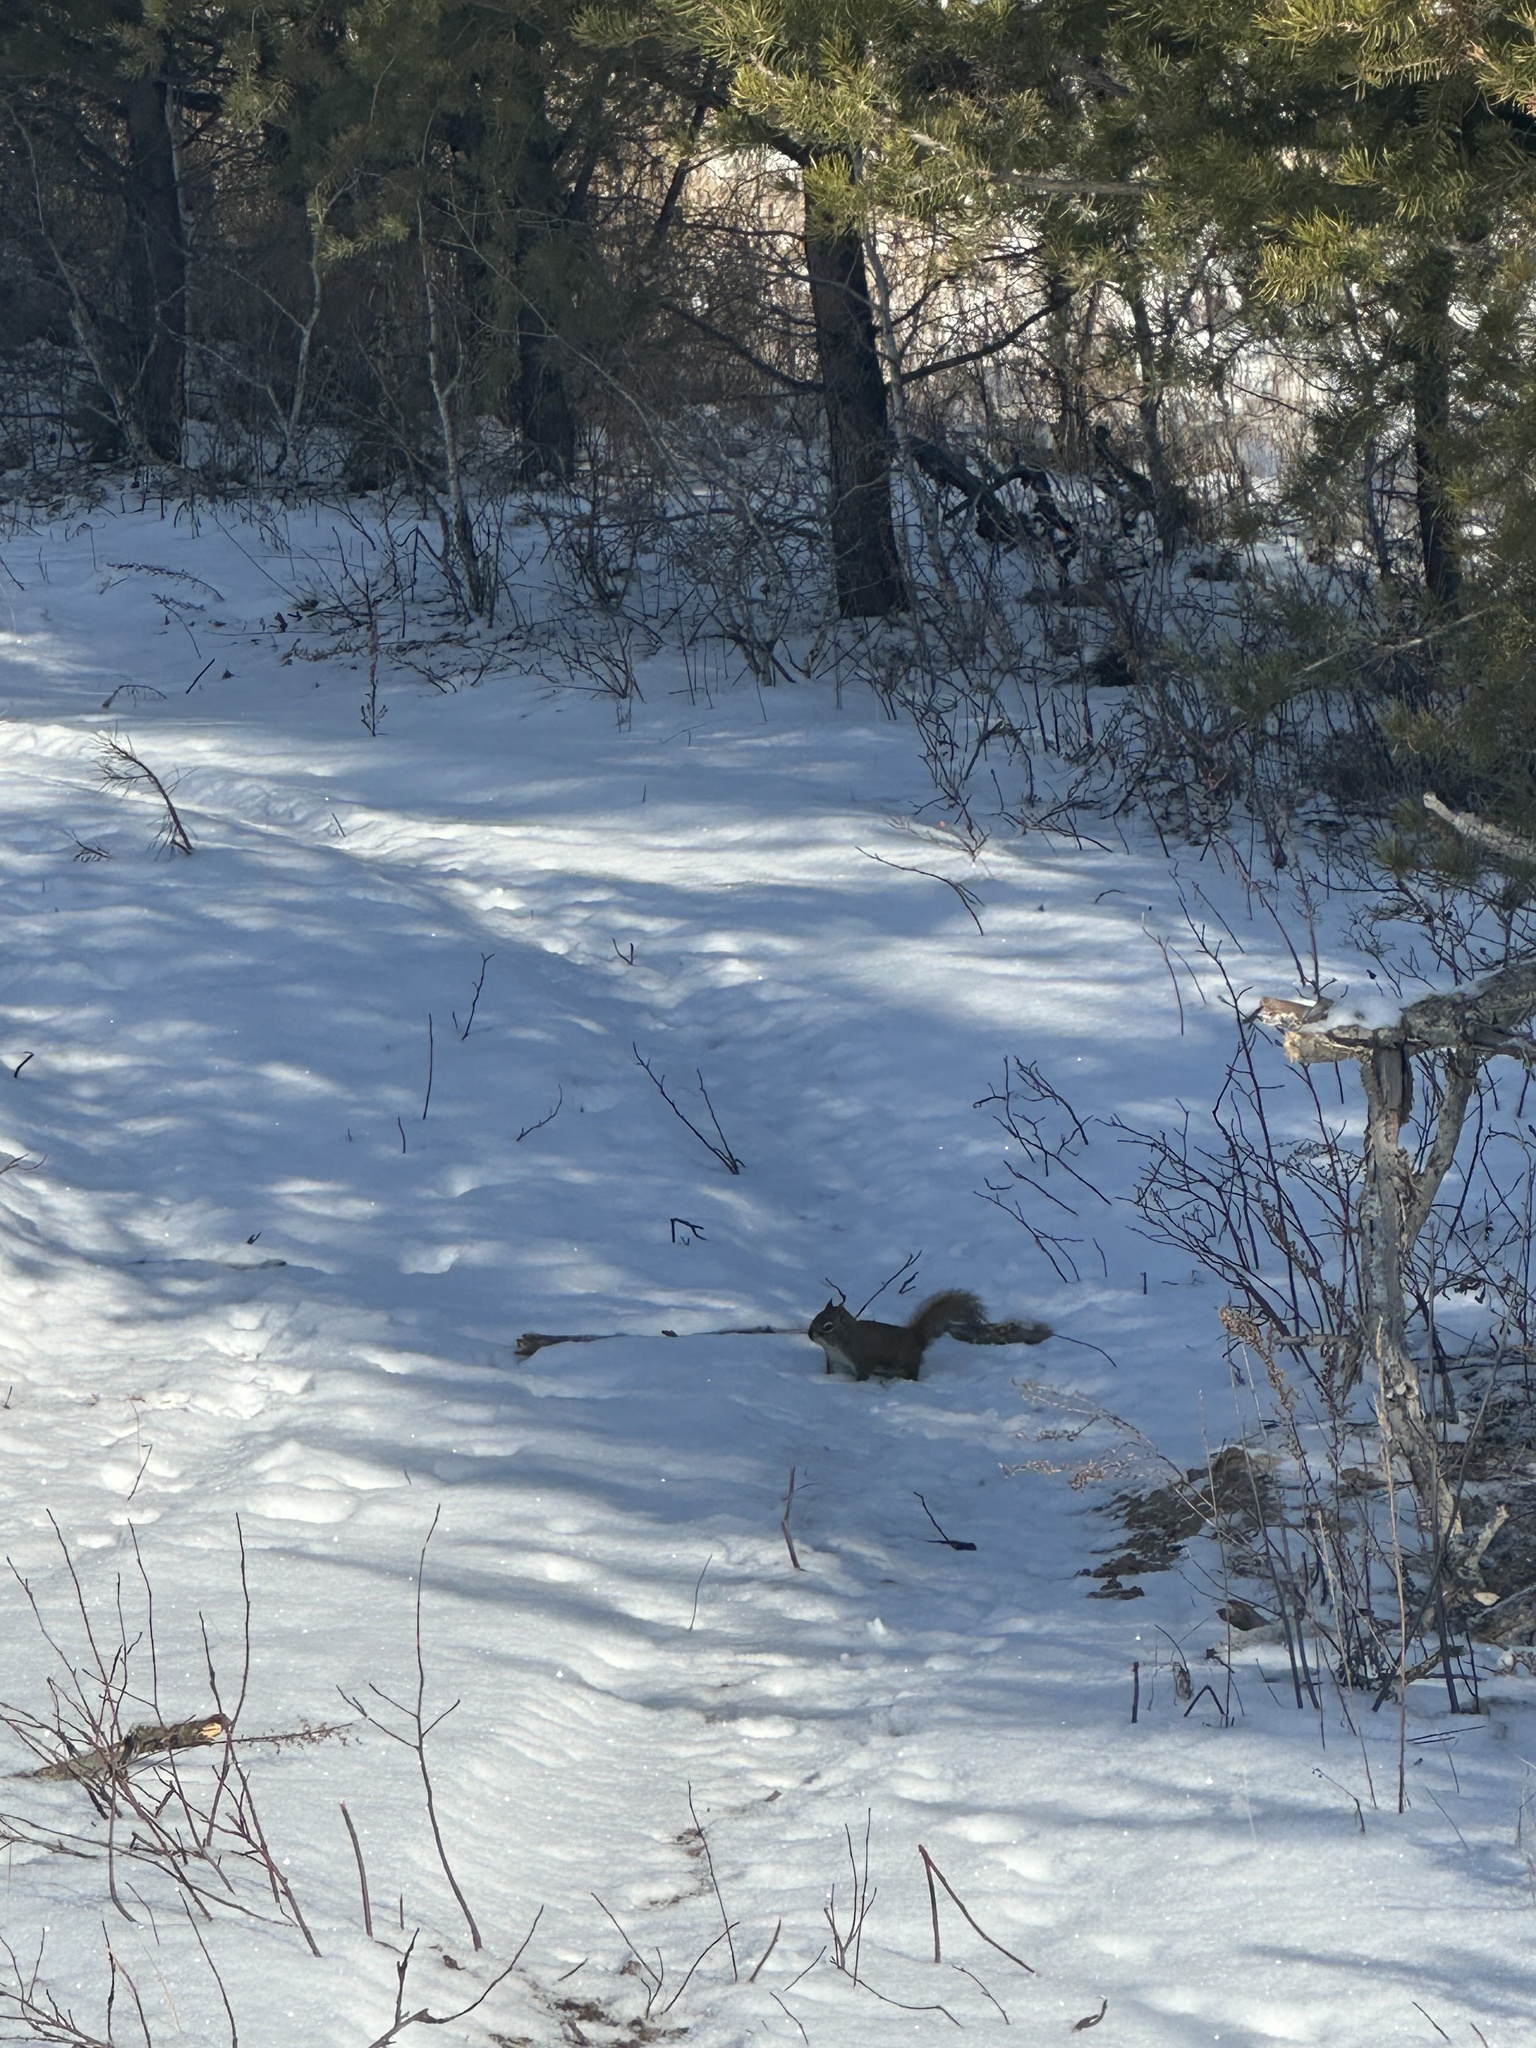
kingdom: Animalia
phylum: Chordata
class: Mammalia
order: Rodentia
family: Sciuridae
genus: Tamiasciurus
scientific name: Tamiasciurus hudsonicus
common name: Red squirrel
